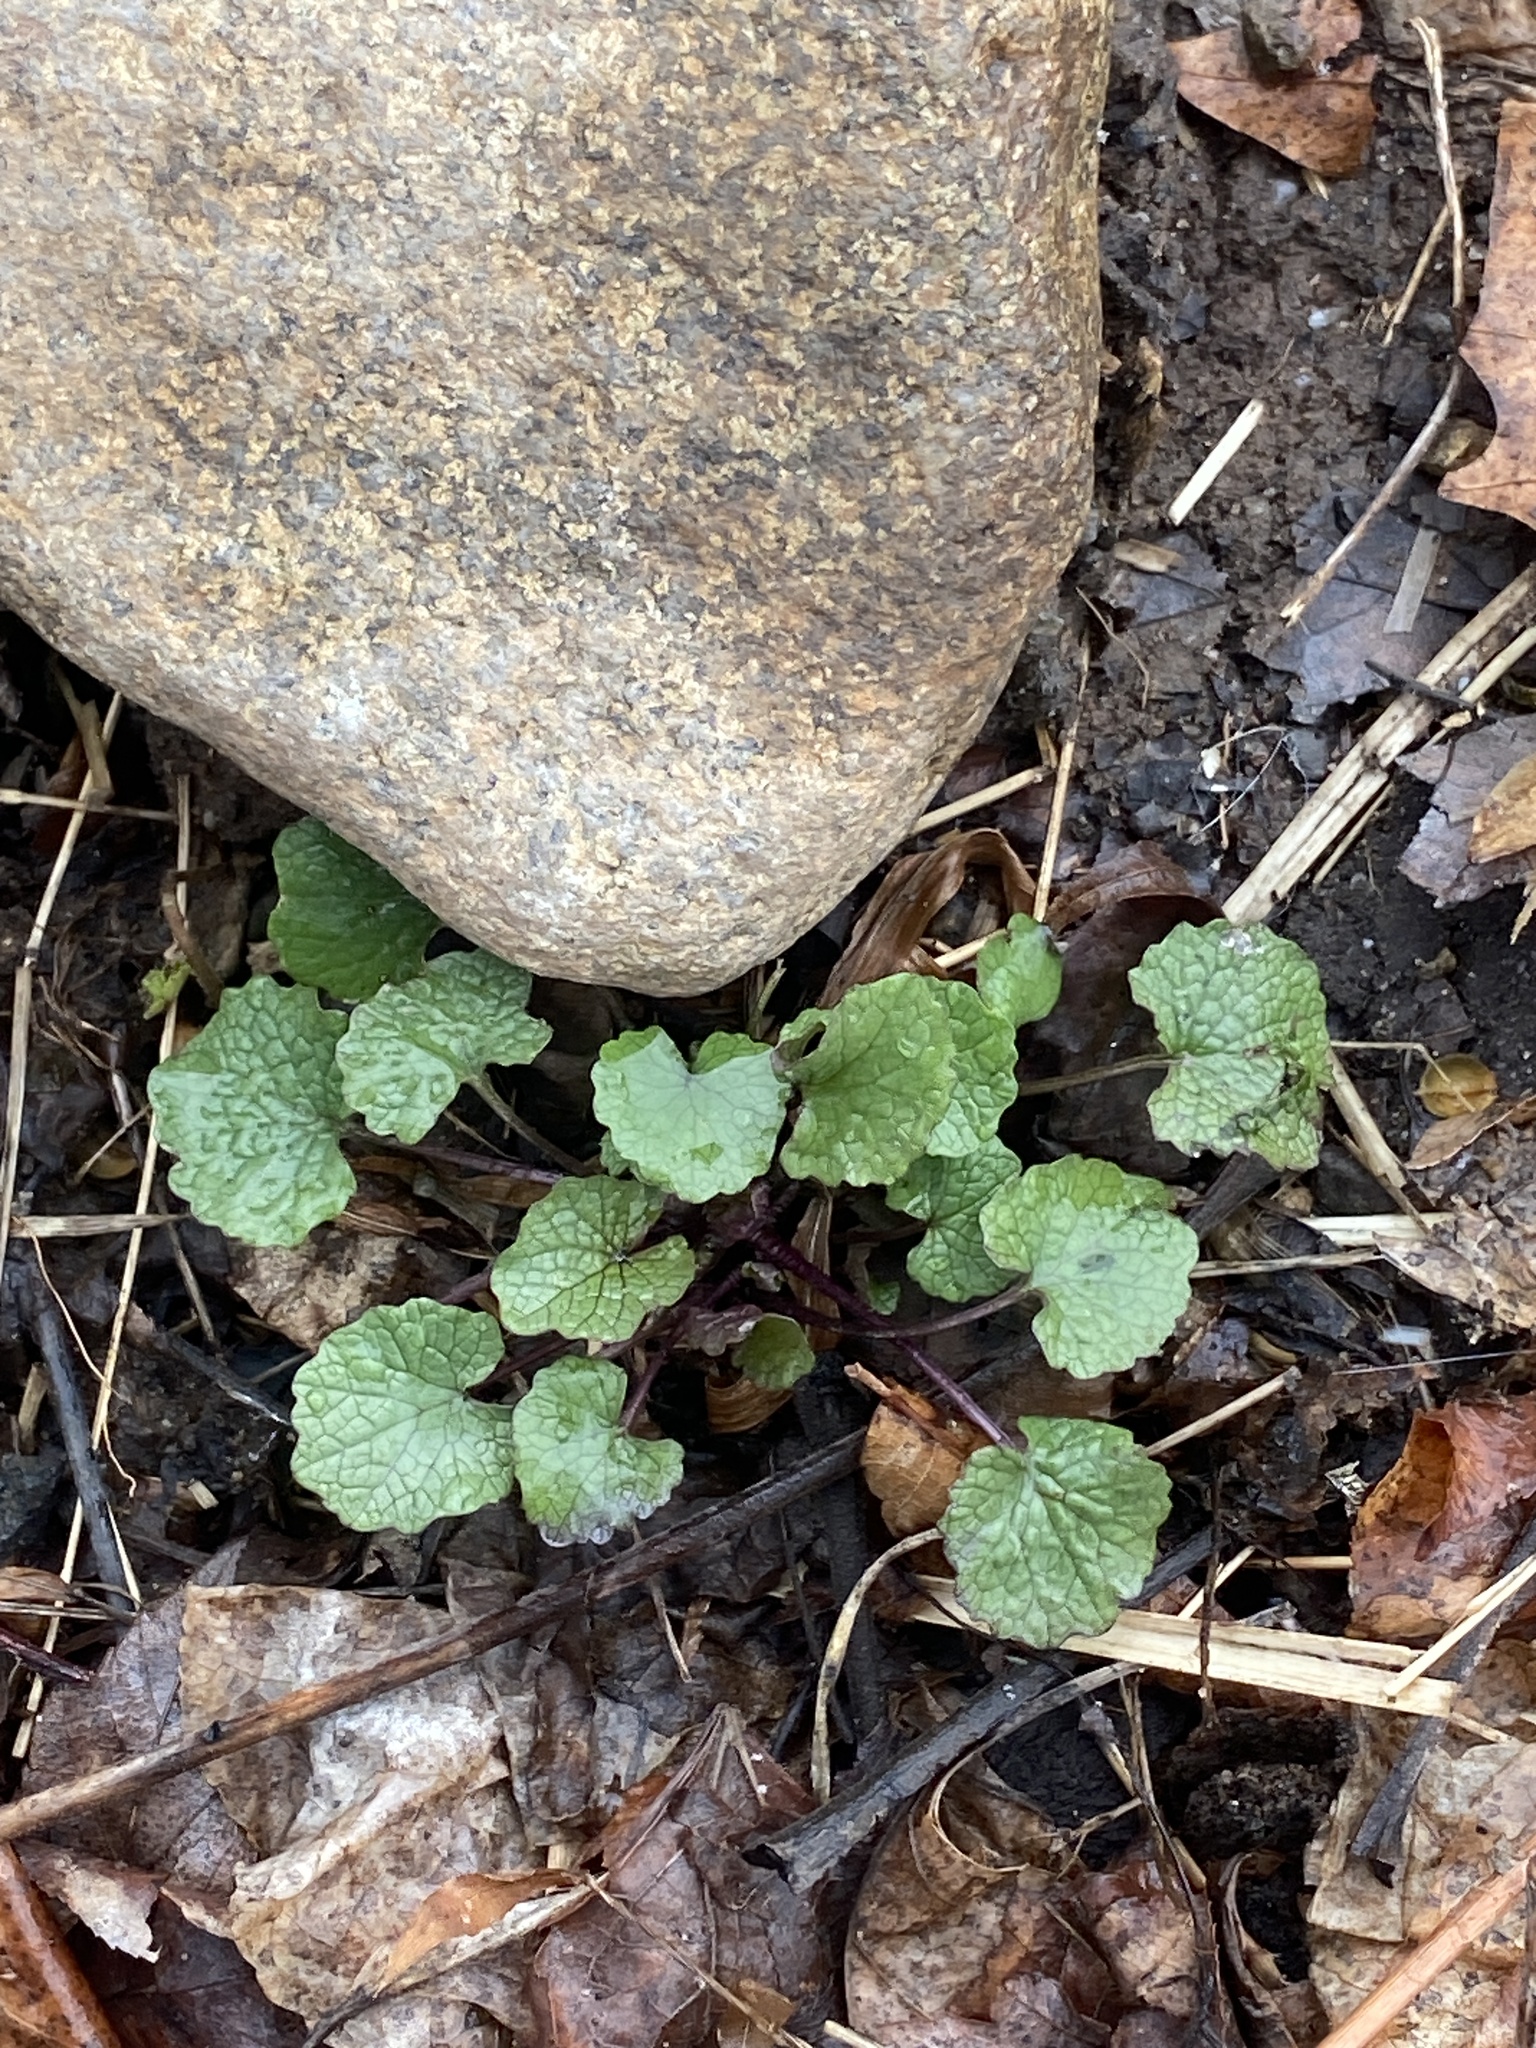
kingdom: Plantae
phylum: Tracheophyta
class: Magnoliopsida
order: Brassicales
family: Brassicaceae
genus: Alliaria
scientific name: Alliaria petiolata
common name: Garlic mustard
